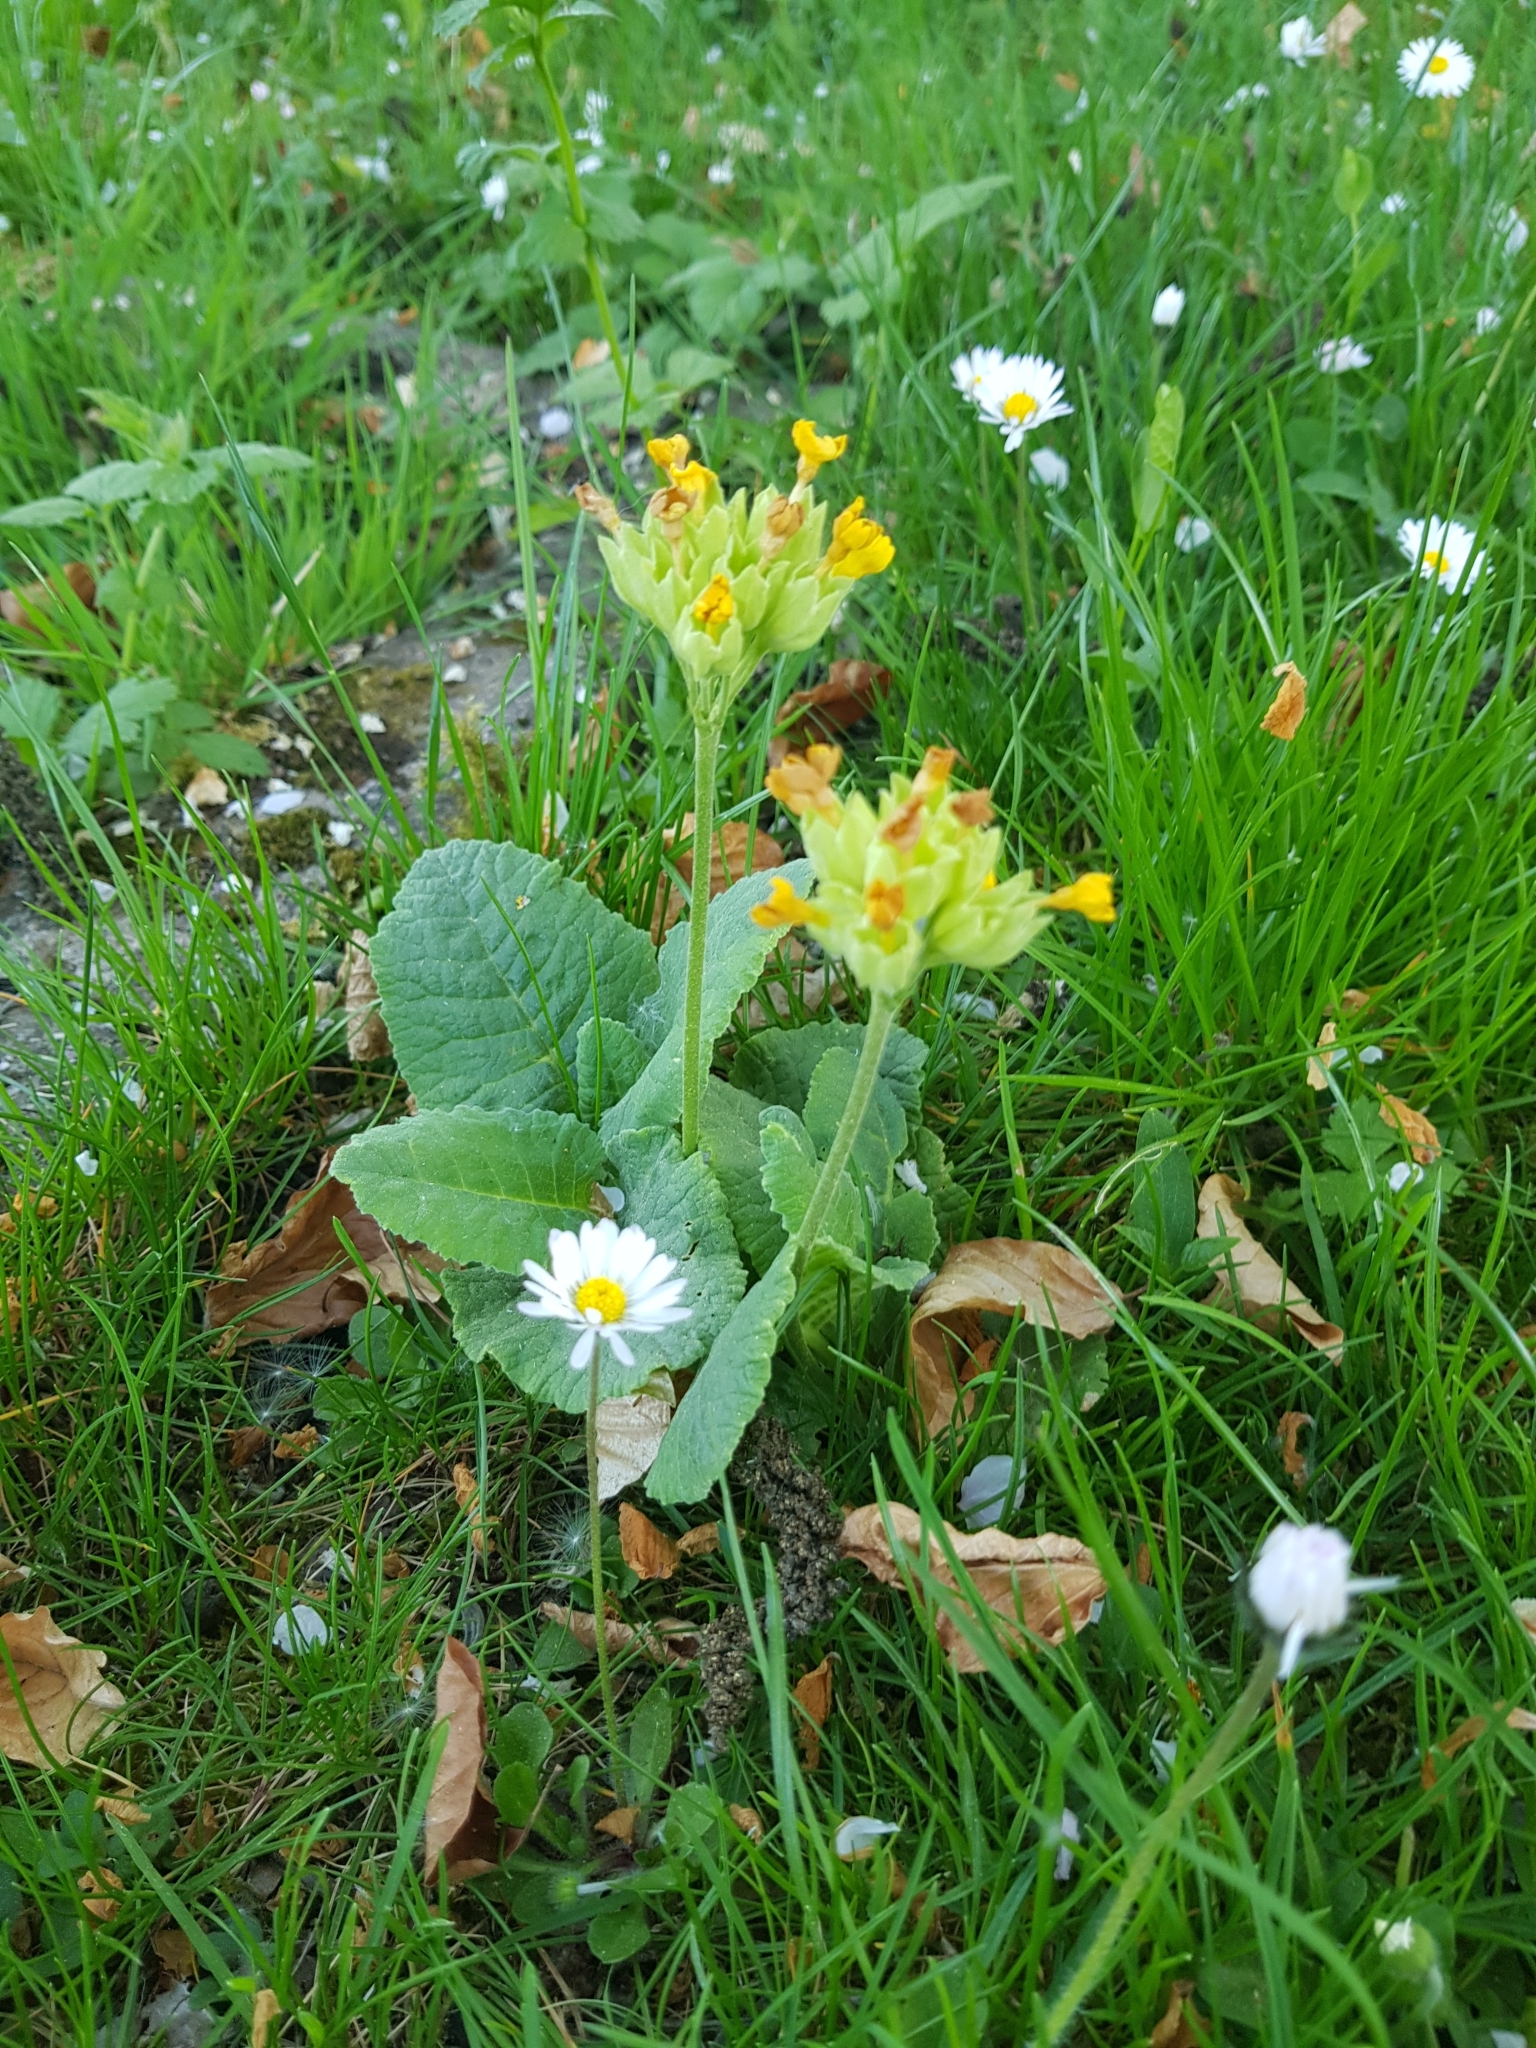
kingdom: Plantae
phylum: Tracheophyta
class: Magnoliopsida
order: Ericales
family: Primulaceae
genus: Primula
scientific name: Primula veris
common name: Cowslip
